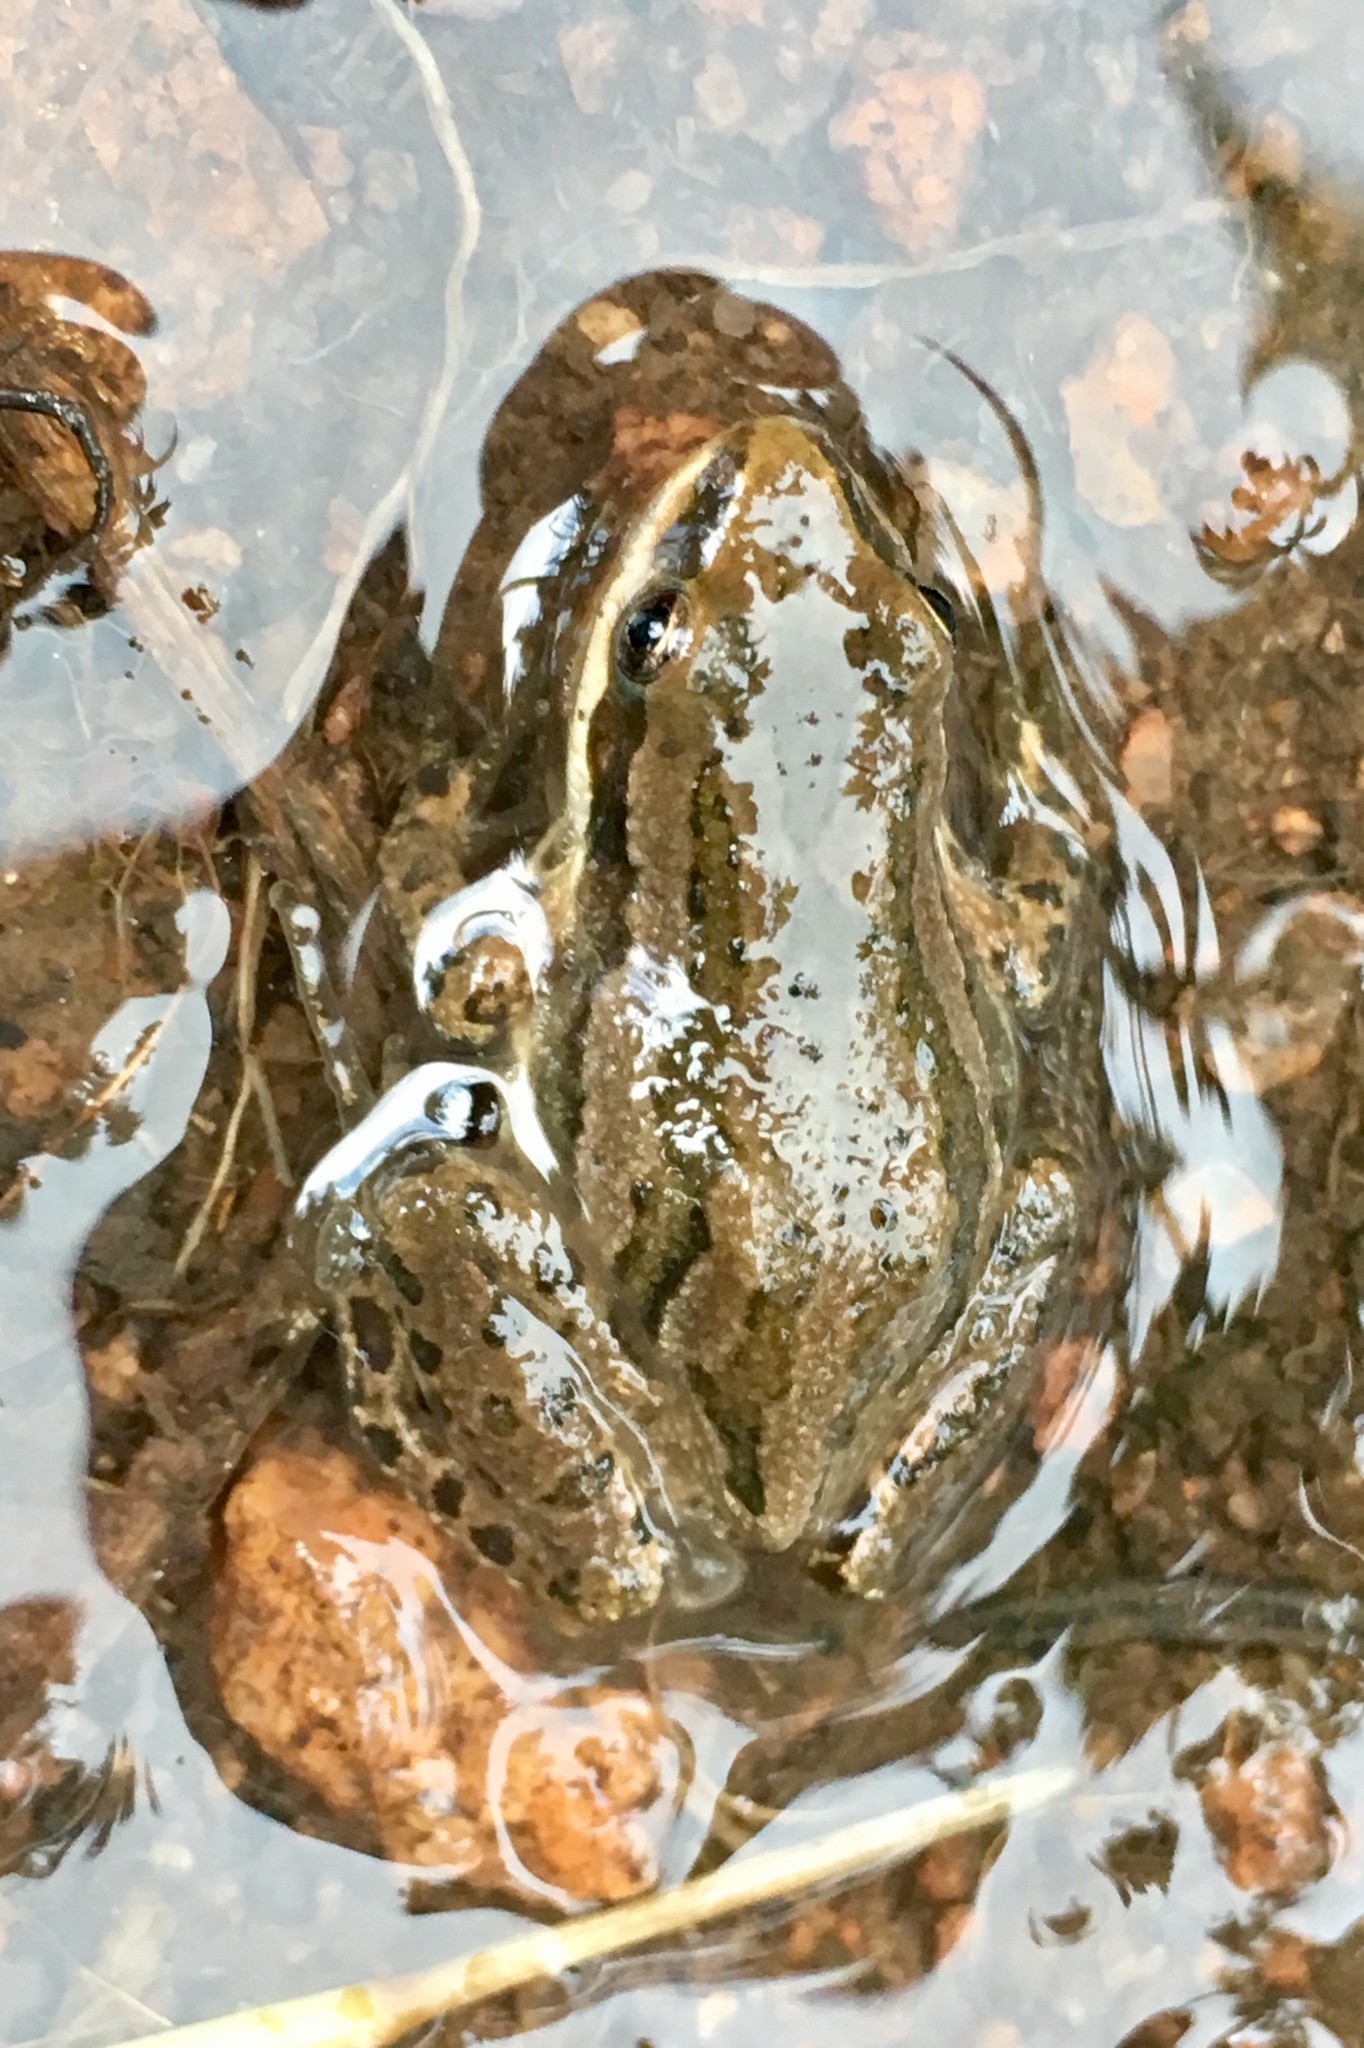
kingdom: Animalia
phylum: Chordata
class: Amphibia
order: Anura
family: Hylidae
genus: Pseudacris
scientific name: Pseudacris maculata
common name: Boreal chorus frog
